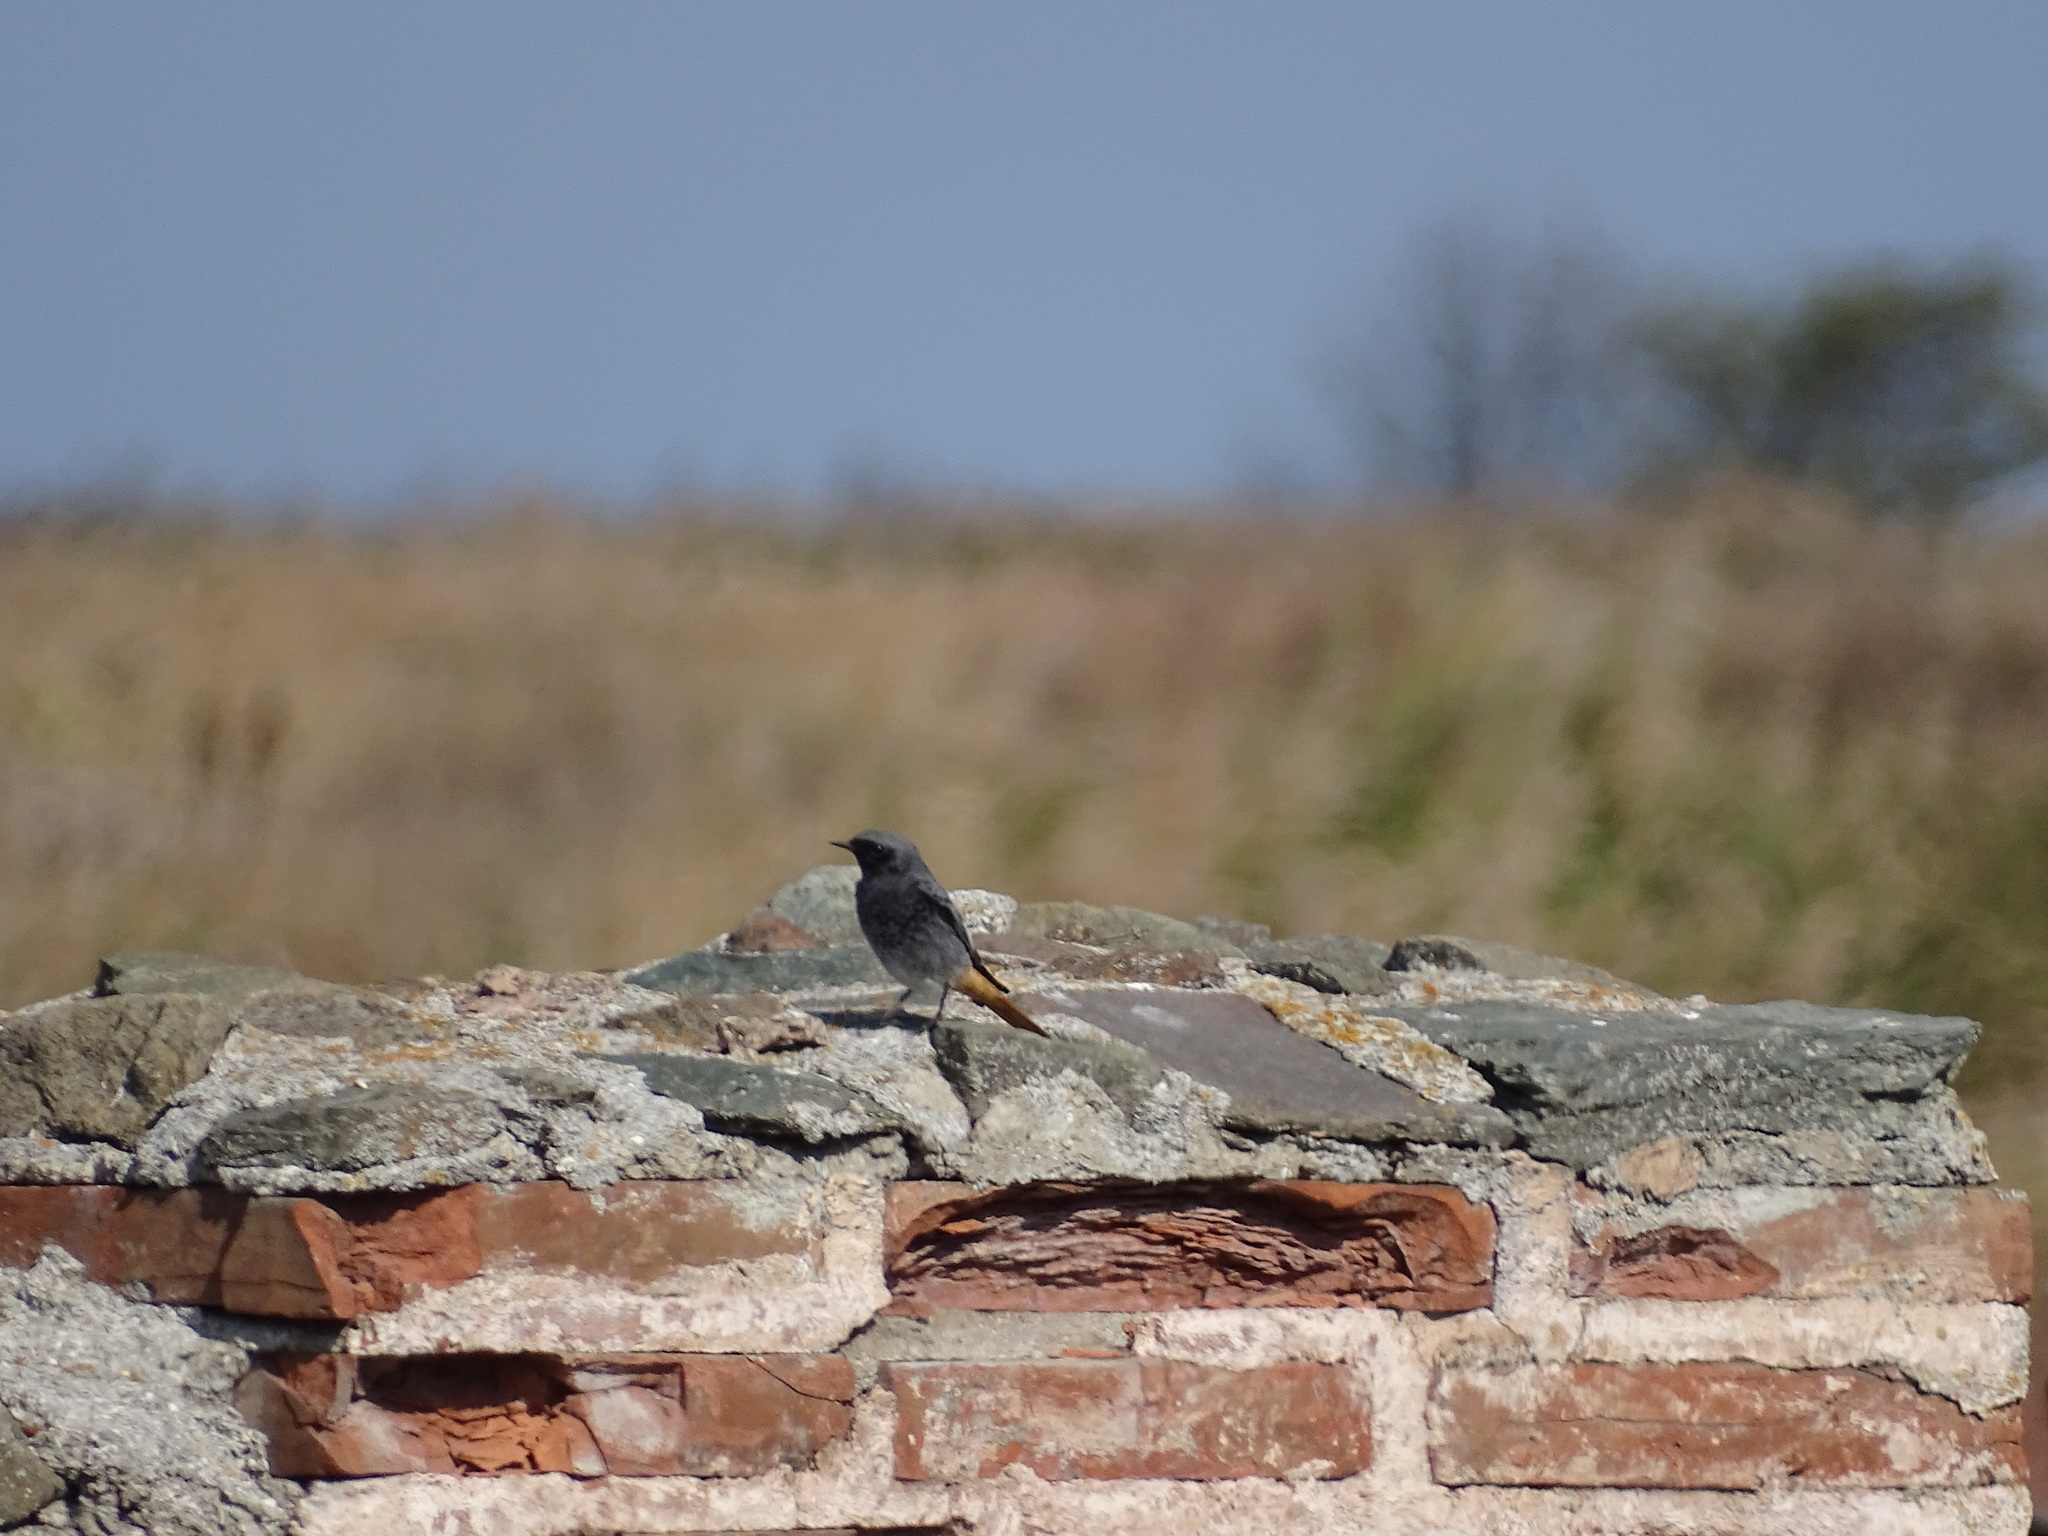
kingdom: Animalia
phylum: Chordata
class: Aves
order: Passeriformes
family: Muscicapidae
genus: Phoenicurus
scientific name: Phoenicurus ochruros
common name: Black redstart
